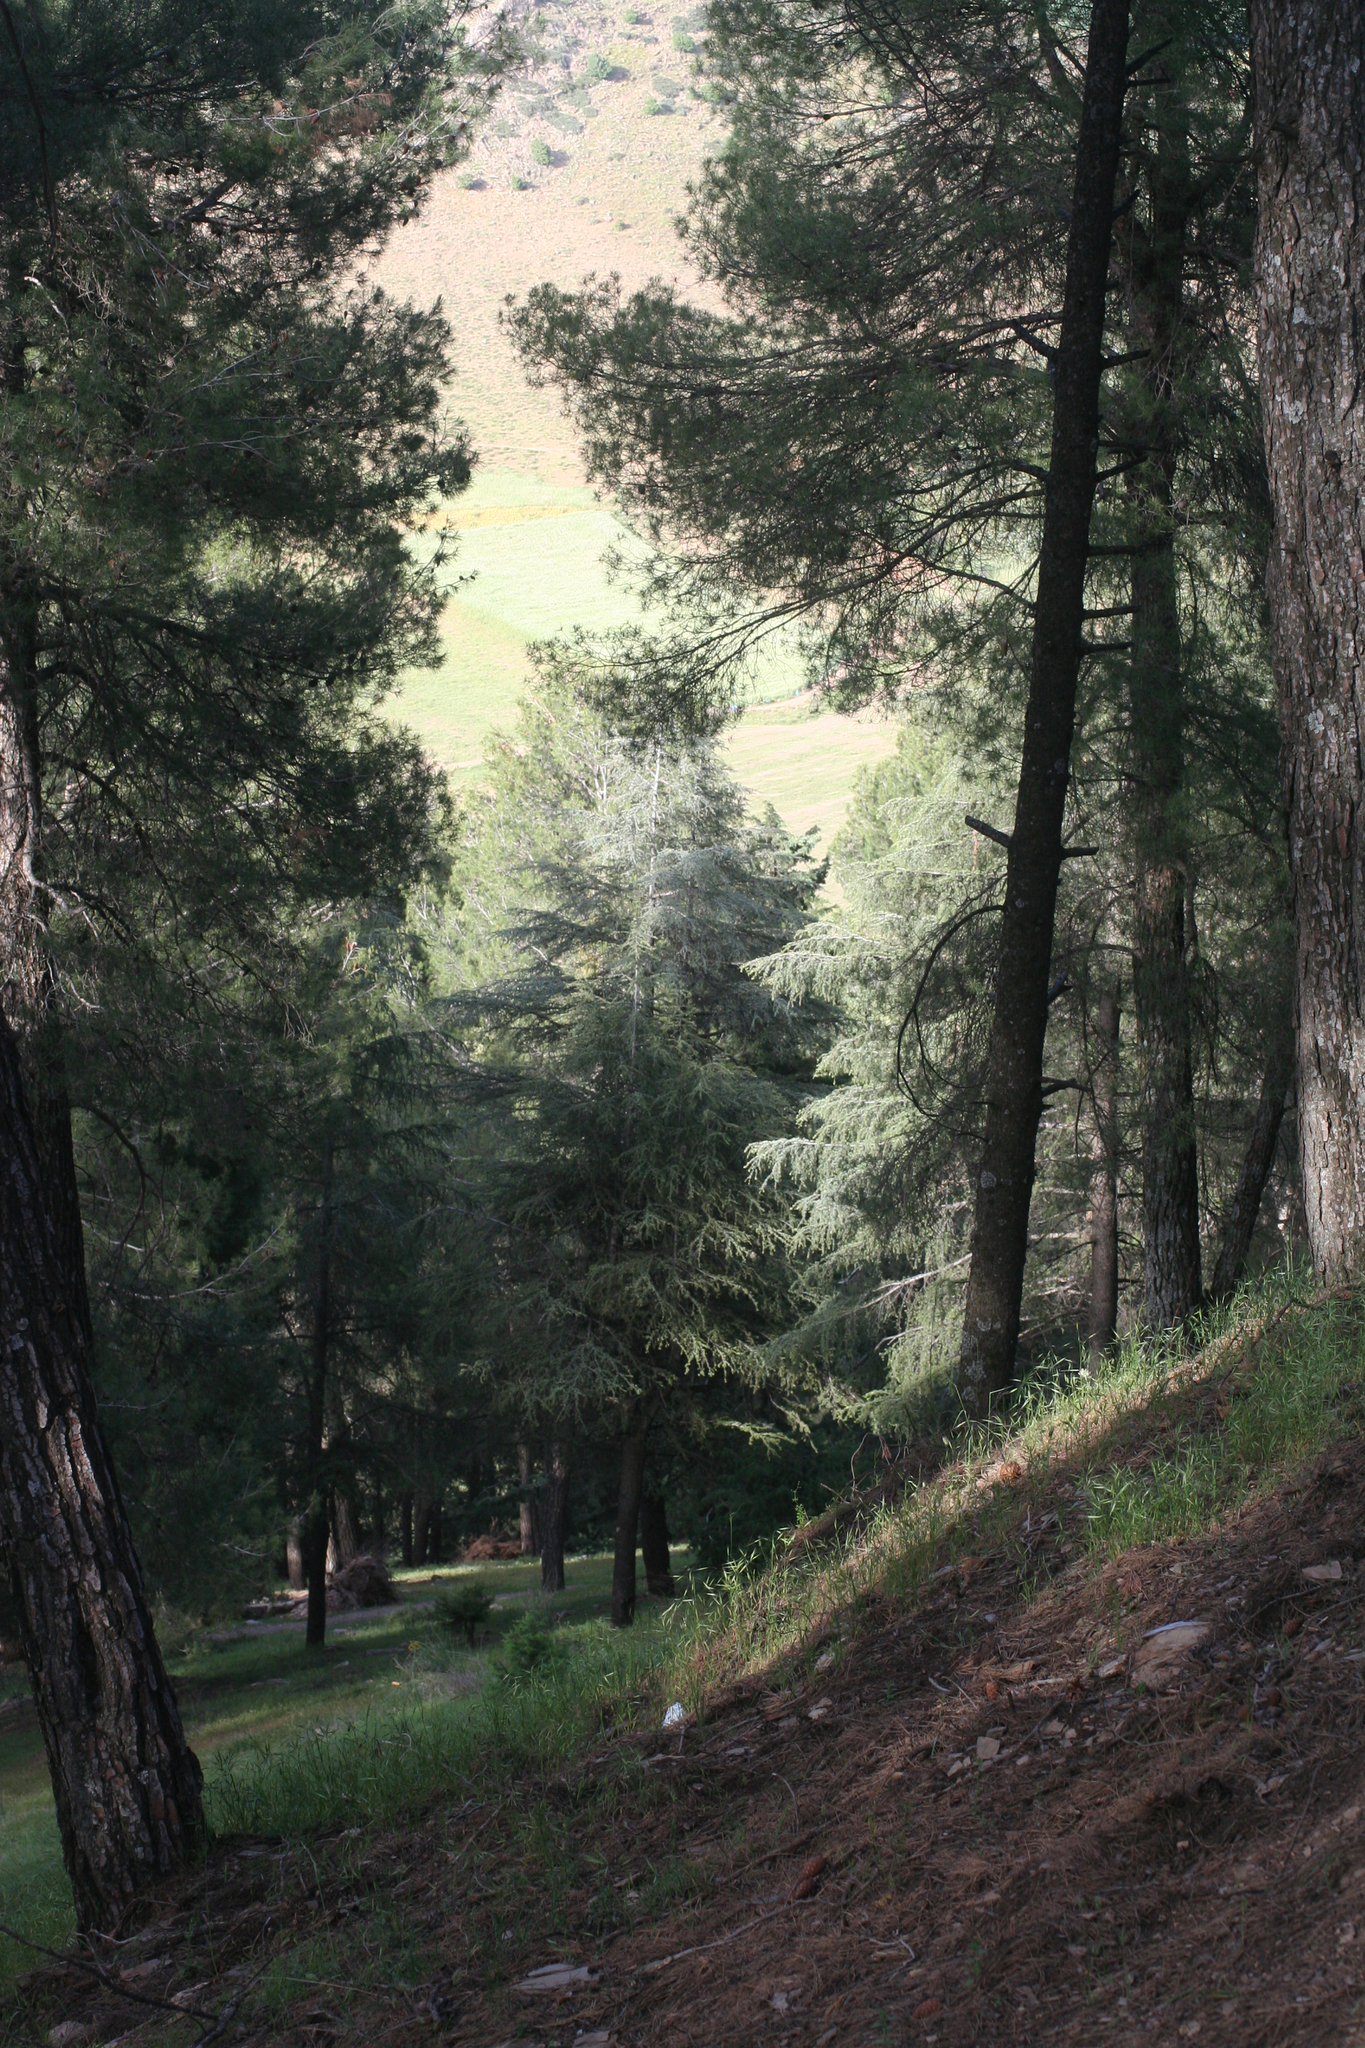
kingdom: Plantae
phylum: Tracheophyta
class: Pinopsida
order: Pinales
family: Pinaceae
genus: Cedrus
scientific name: Cedrus atlantica
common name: Atlas cedar
